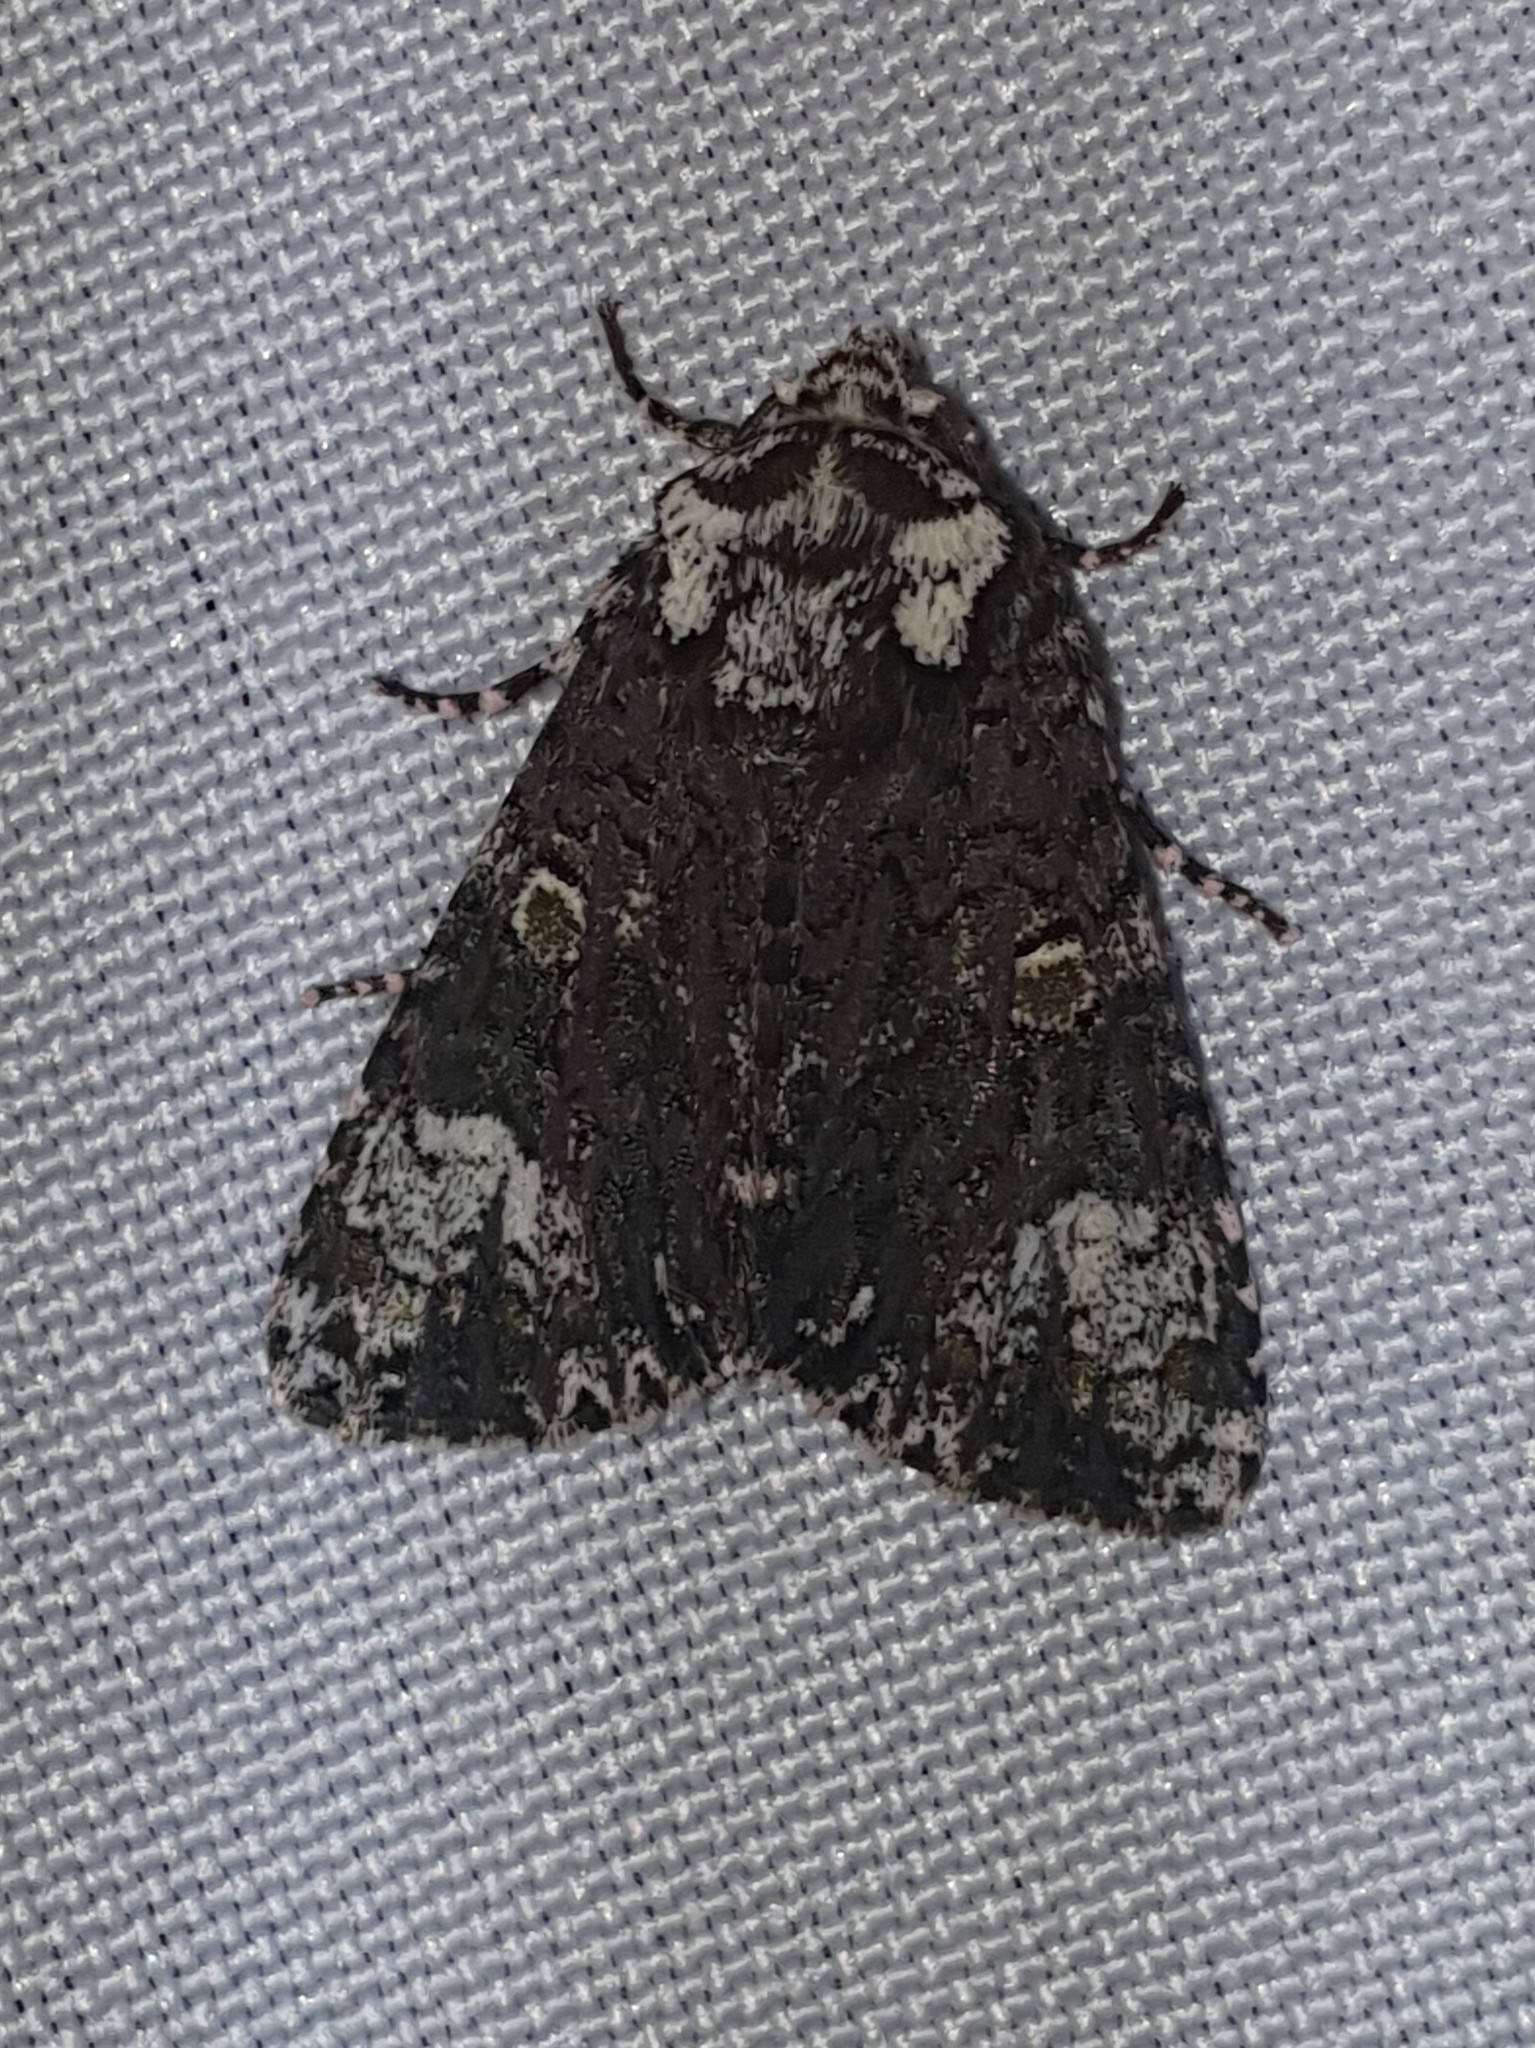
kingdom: Animalia
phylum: Arthropoda
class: Insecta
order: Lepidoptera
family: Noctuidae
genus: Craniophora
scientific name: Craniophora ligustri
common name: Coronet
